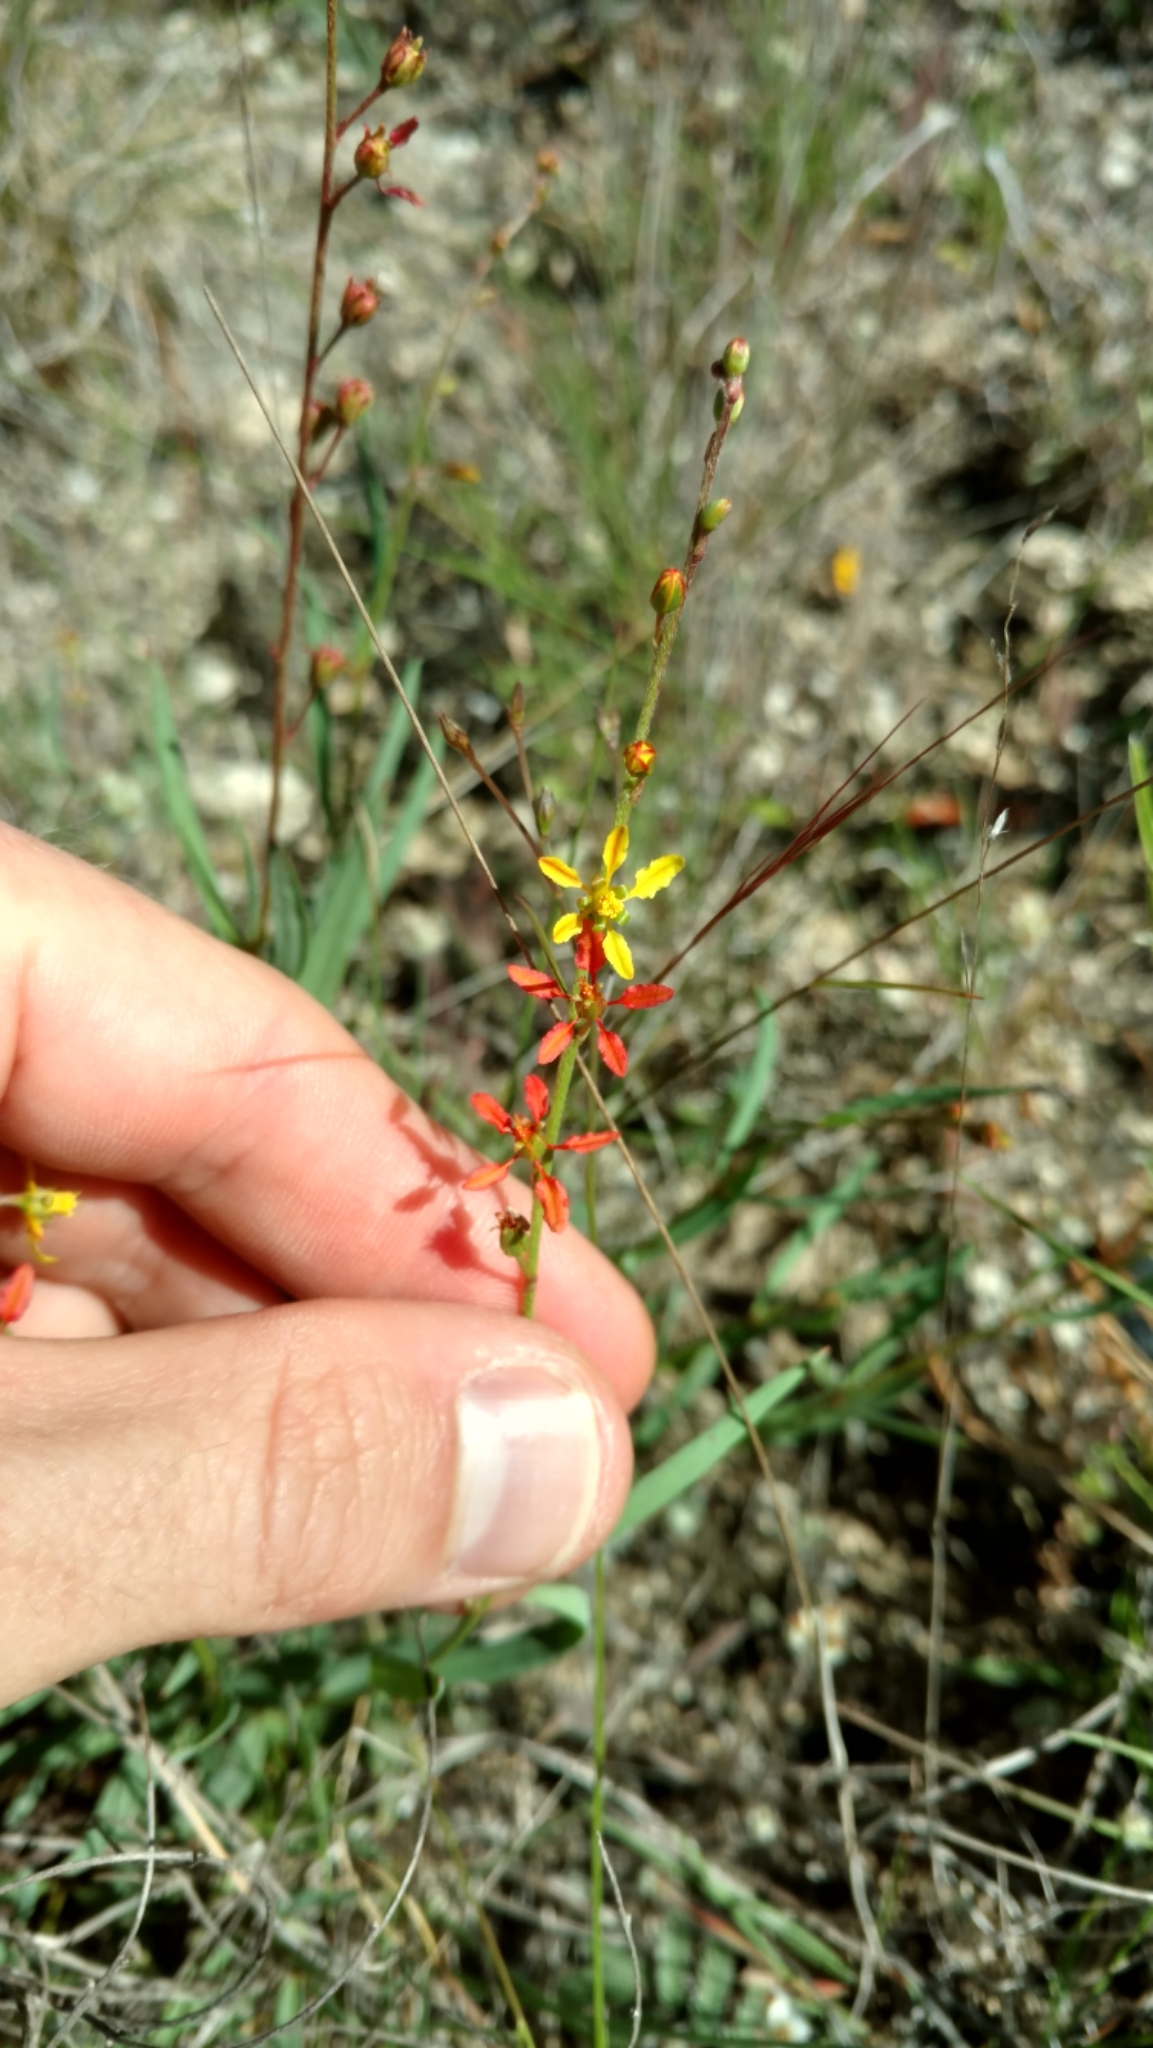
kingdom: Plantae
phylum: Tracheophyta
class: Magnoliopsida
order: Malpighiales
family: Malpighiaceae
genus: Galphimia
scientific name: Galphimia angustifolia
